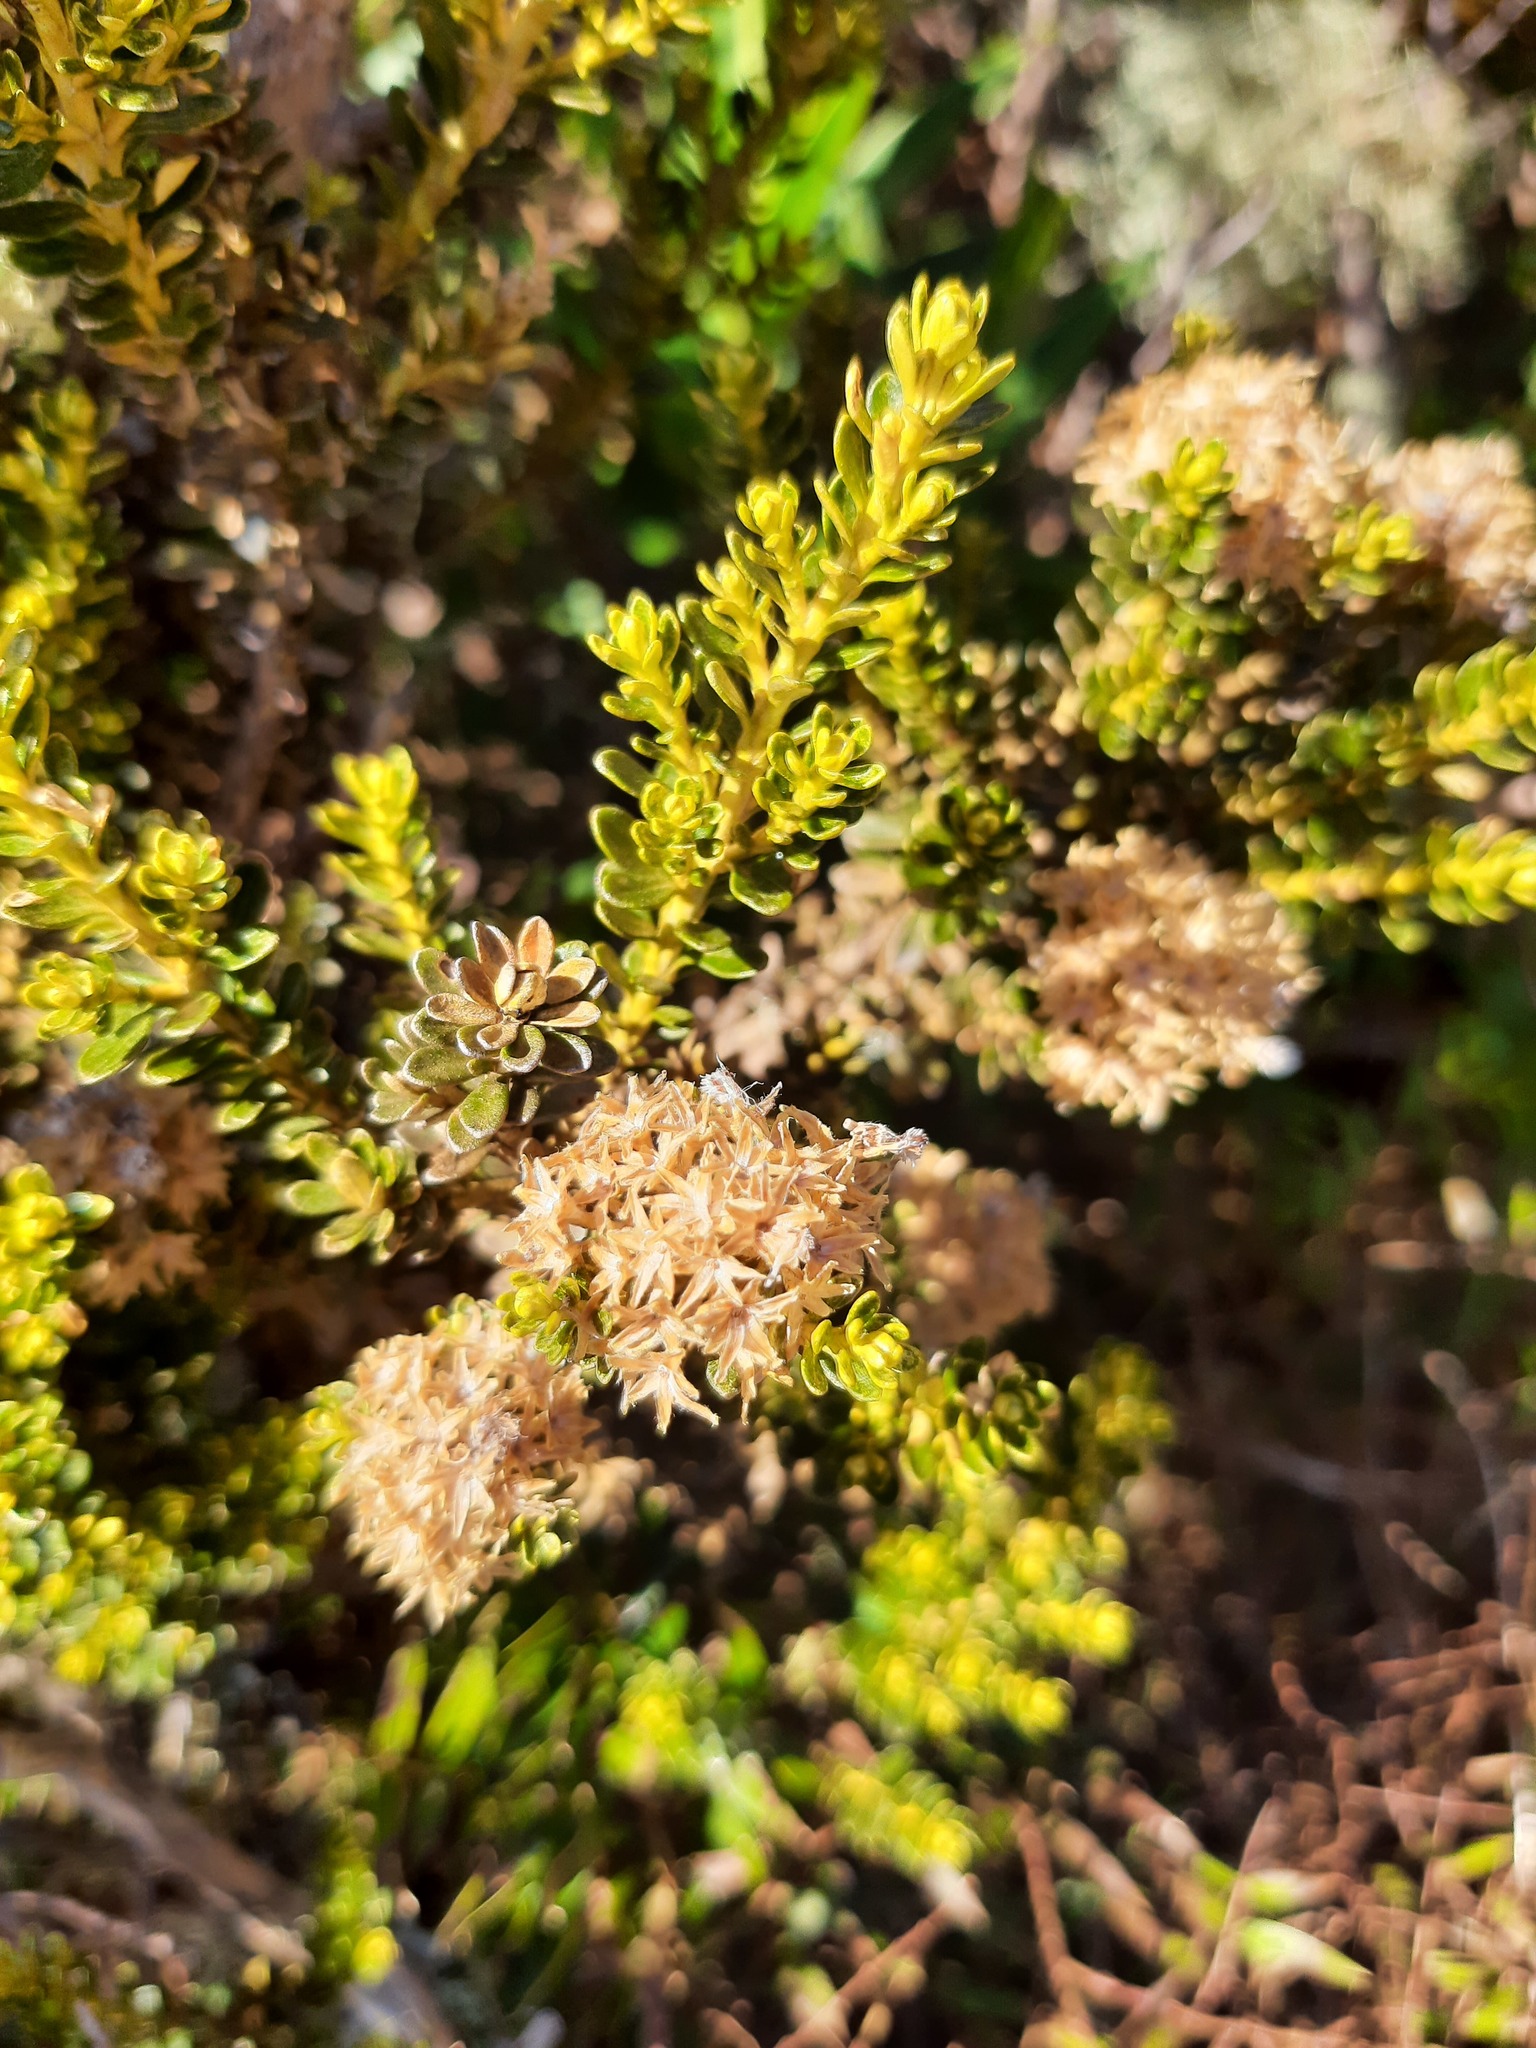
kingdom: Plantae
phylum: Tracheophyta
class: Magnoliopsida
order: Asterales
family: Asteraceae
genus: Ozothamnus
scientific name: Ozothamnus leptophyllus
